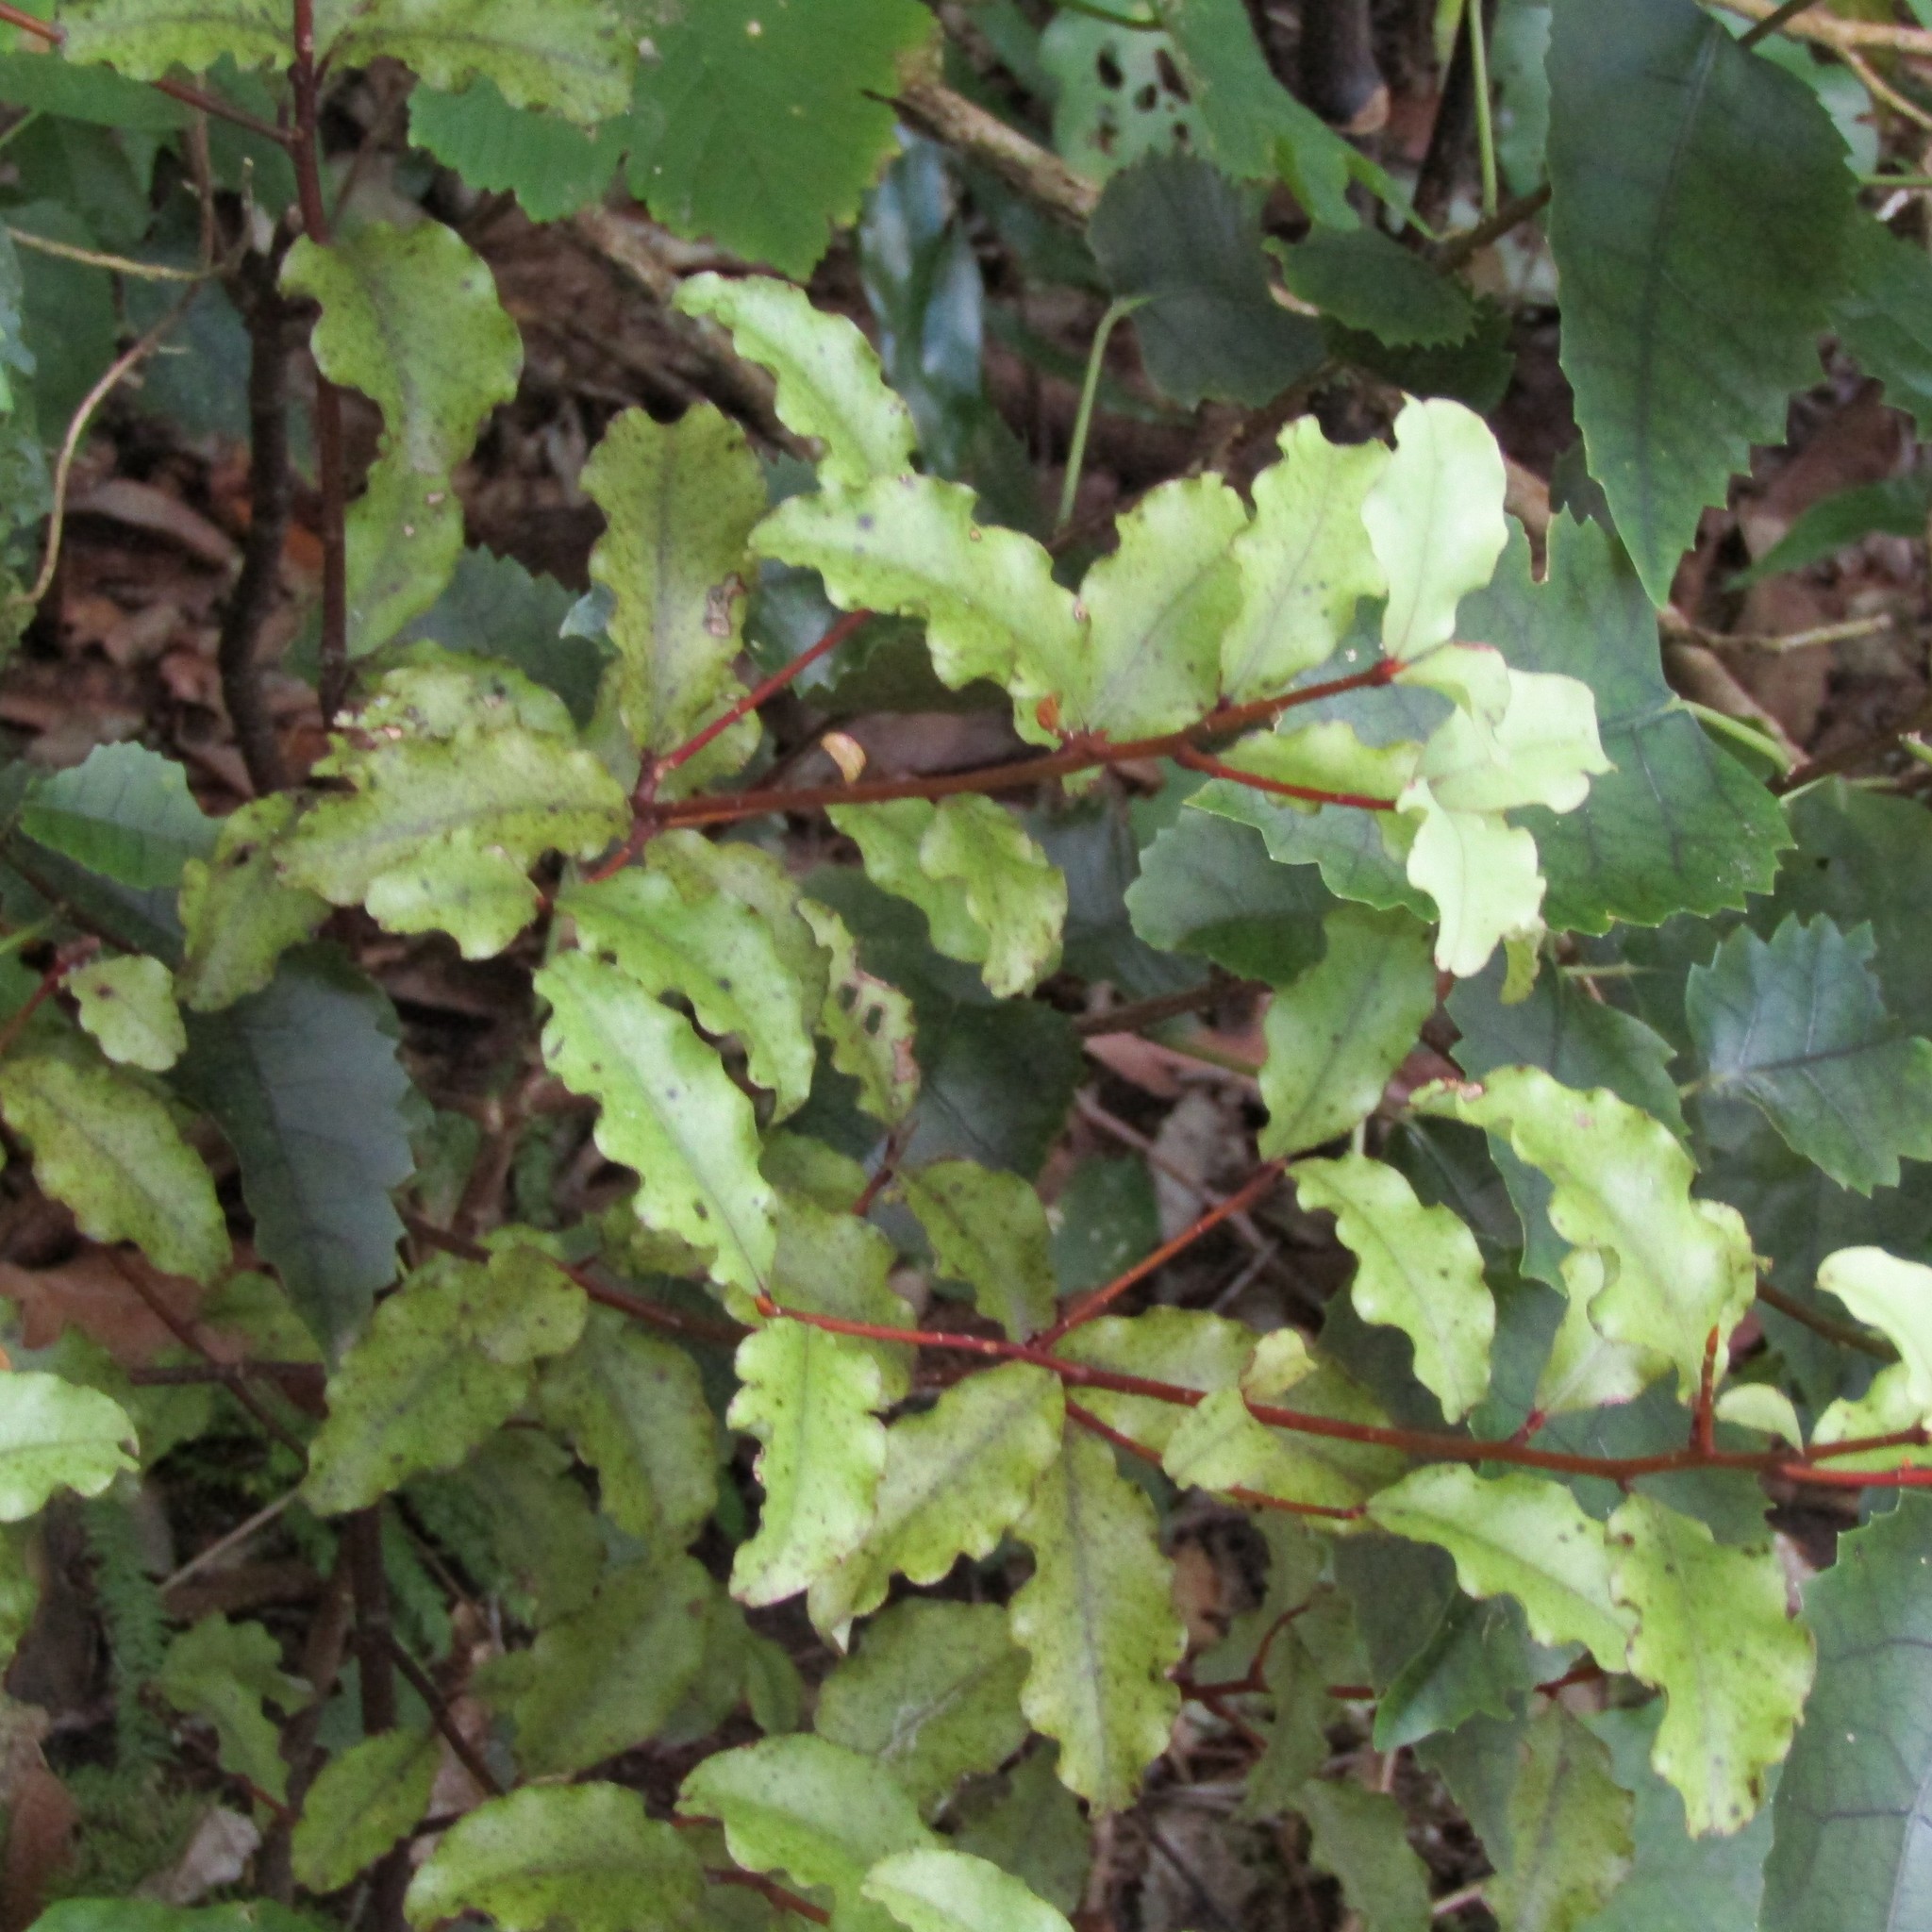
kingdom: Plantae
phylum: Tracheophyta
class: Magnoliopsida
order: Ericales
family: Primulaceae
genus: Myrsine
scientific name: Myrsine australis
